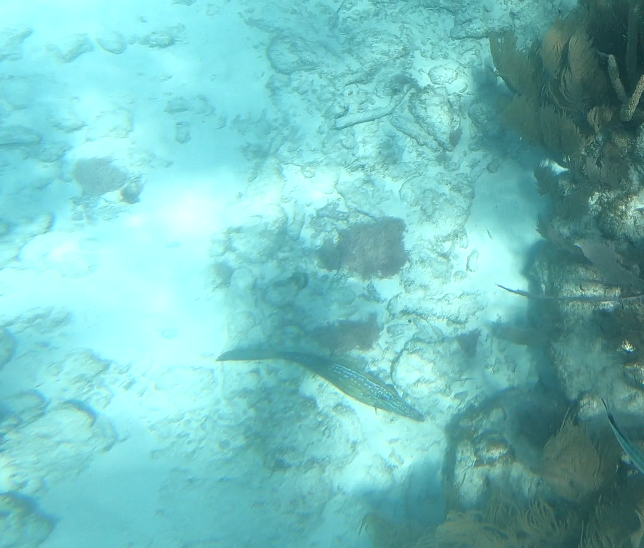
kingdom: Animalia
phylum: Chordata
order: Tetraodontiformes
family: Monacanthidae
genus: Aluterus
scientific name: Aluterus scriptus
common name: Scribbled leatherjacket filefish
